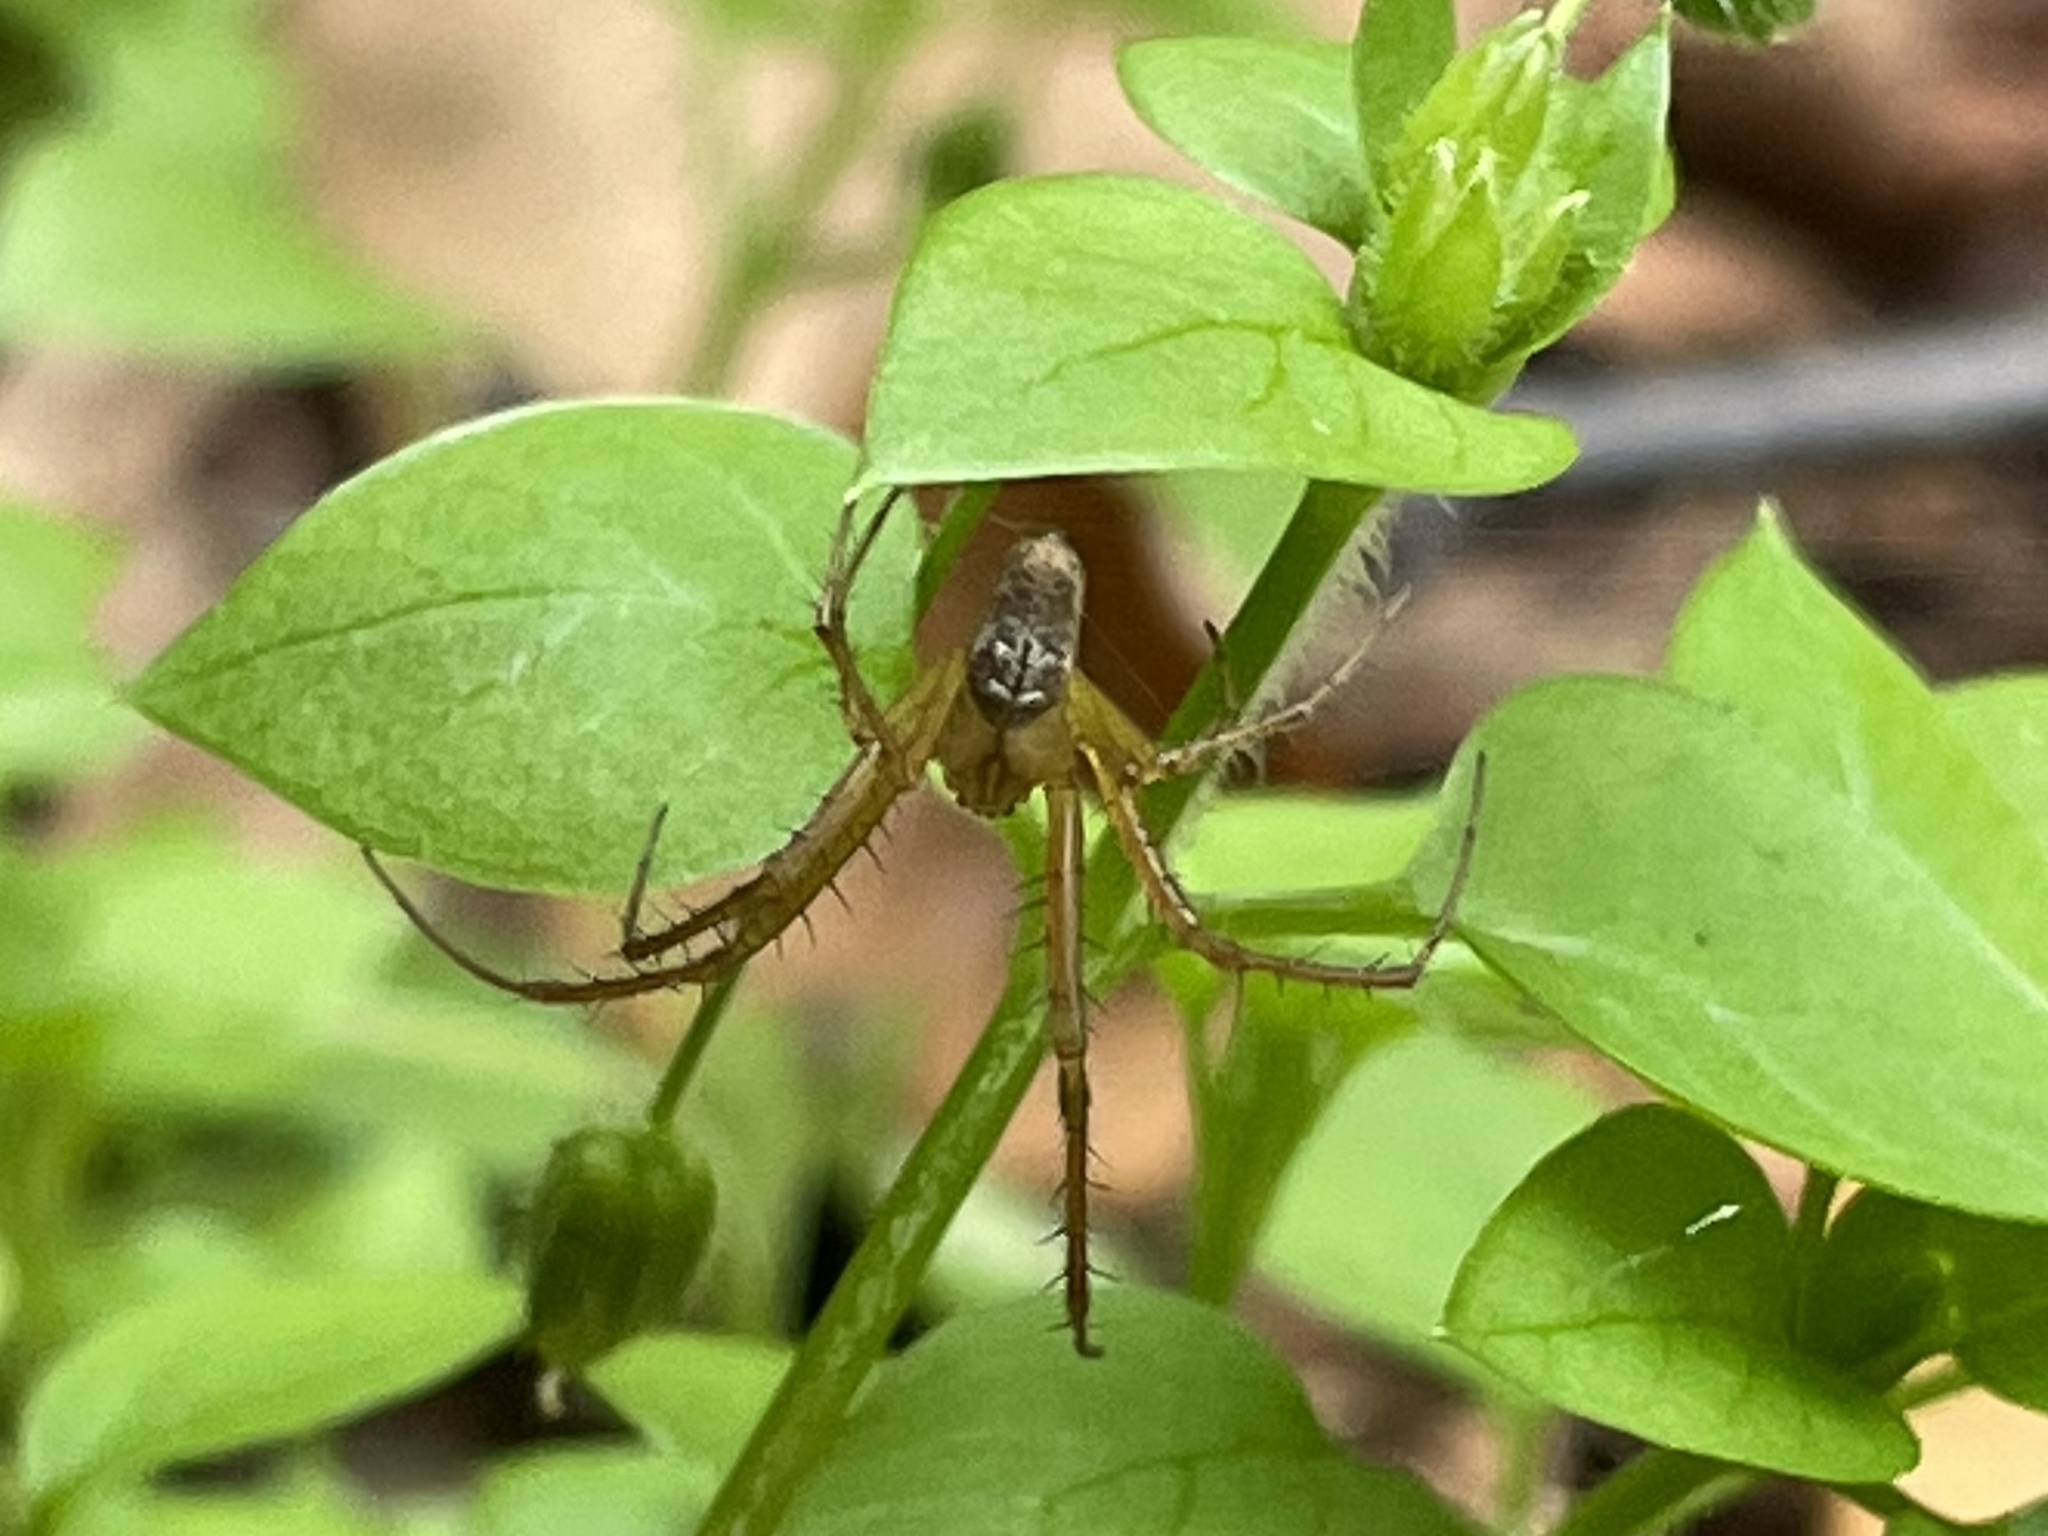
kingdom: Animalia
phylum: Arthropoda
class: Arachnida
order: Araneae
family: Tetragnathidae
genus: Metellina
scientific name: Metellina
